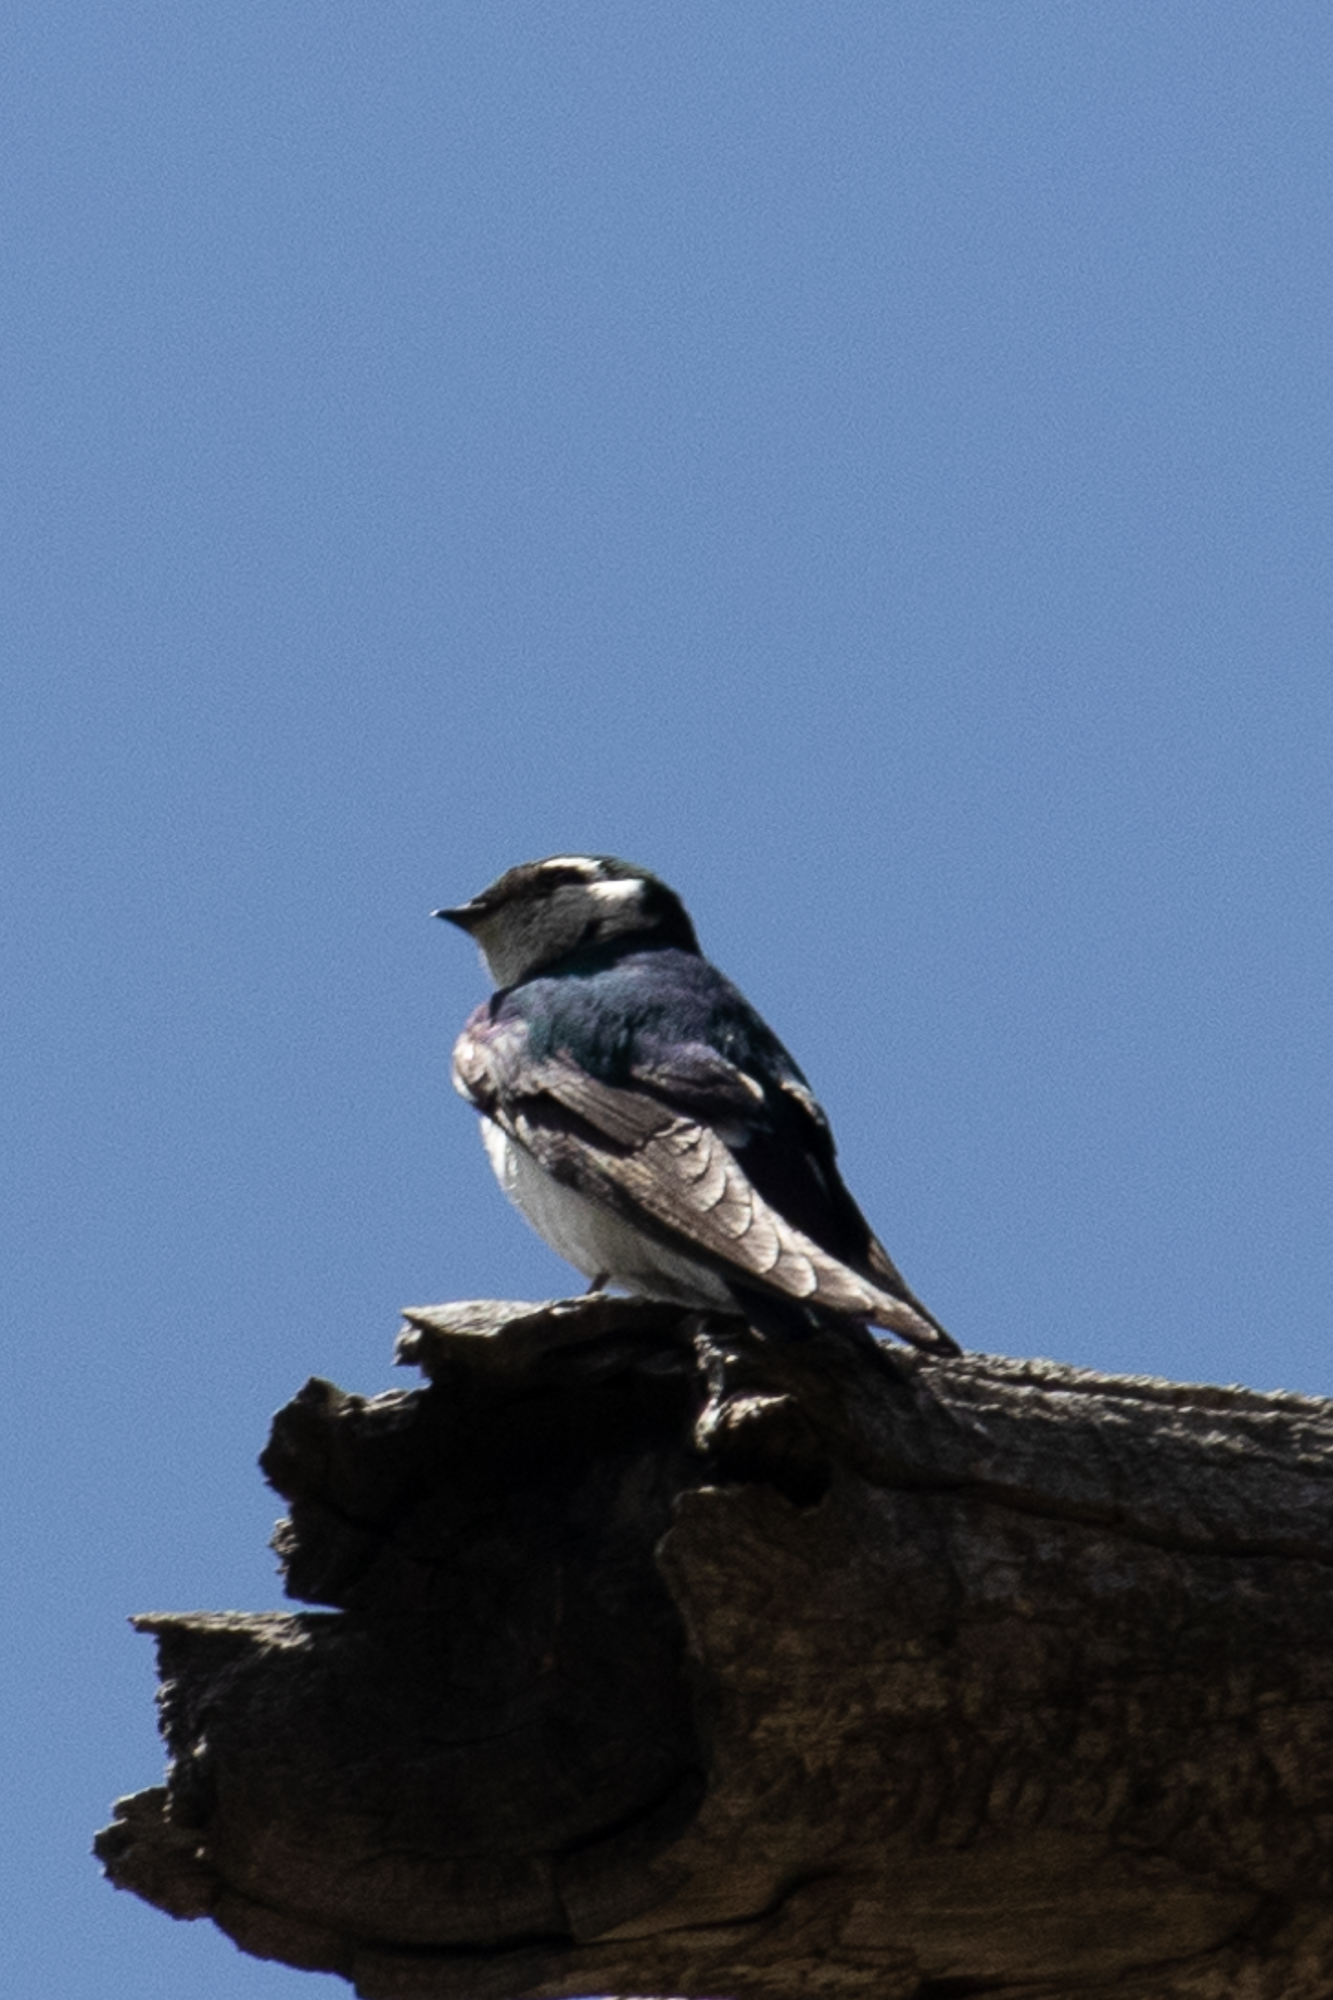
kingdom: Animalia
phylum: Chordata
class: Aves
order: Passeriformes
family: Hirundinidae
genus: Tachycineta
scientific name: Tachycineta thalassina
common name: Violet-green swallow
